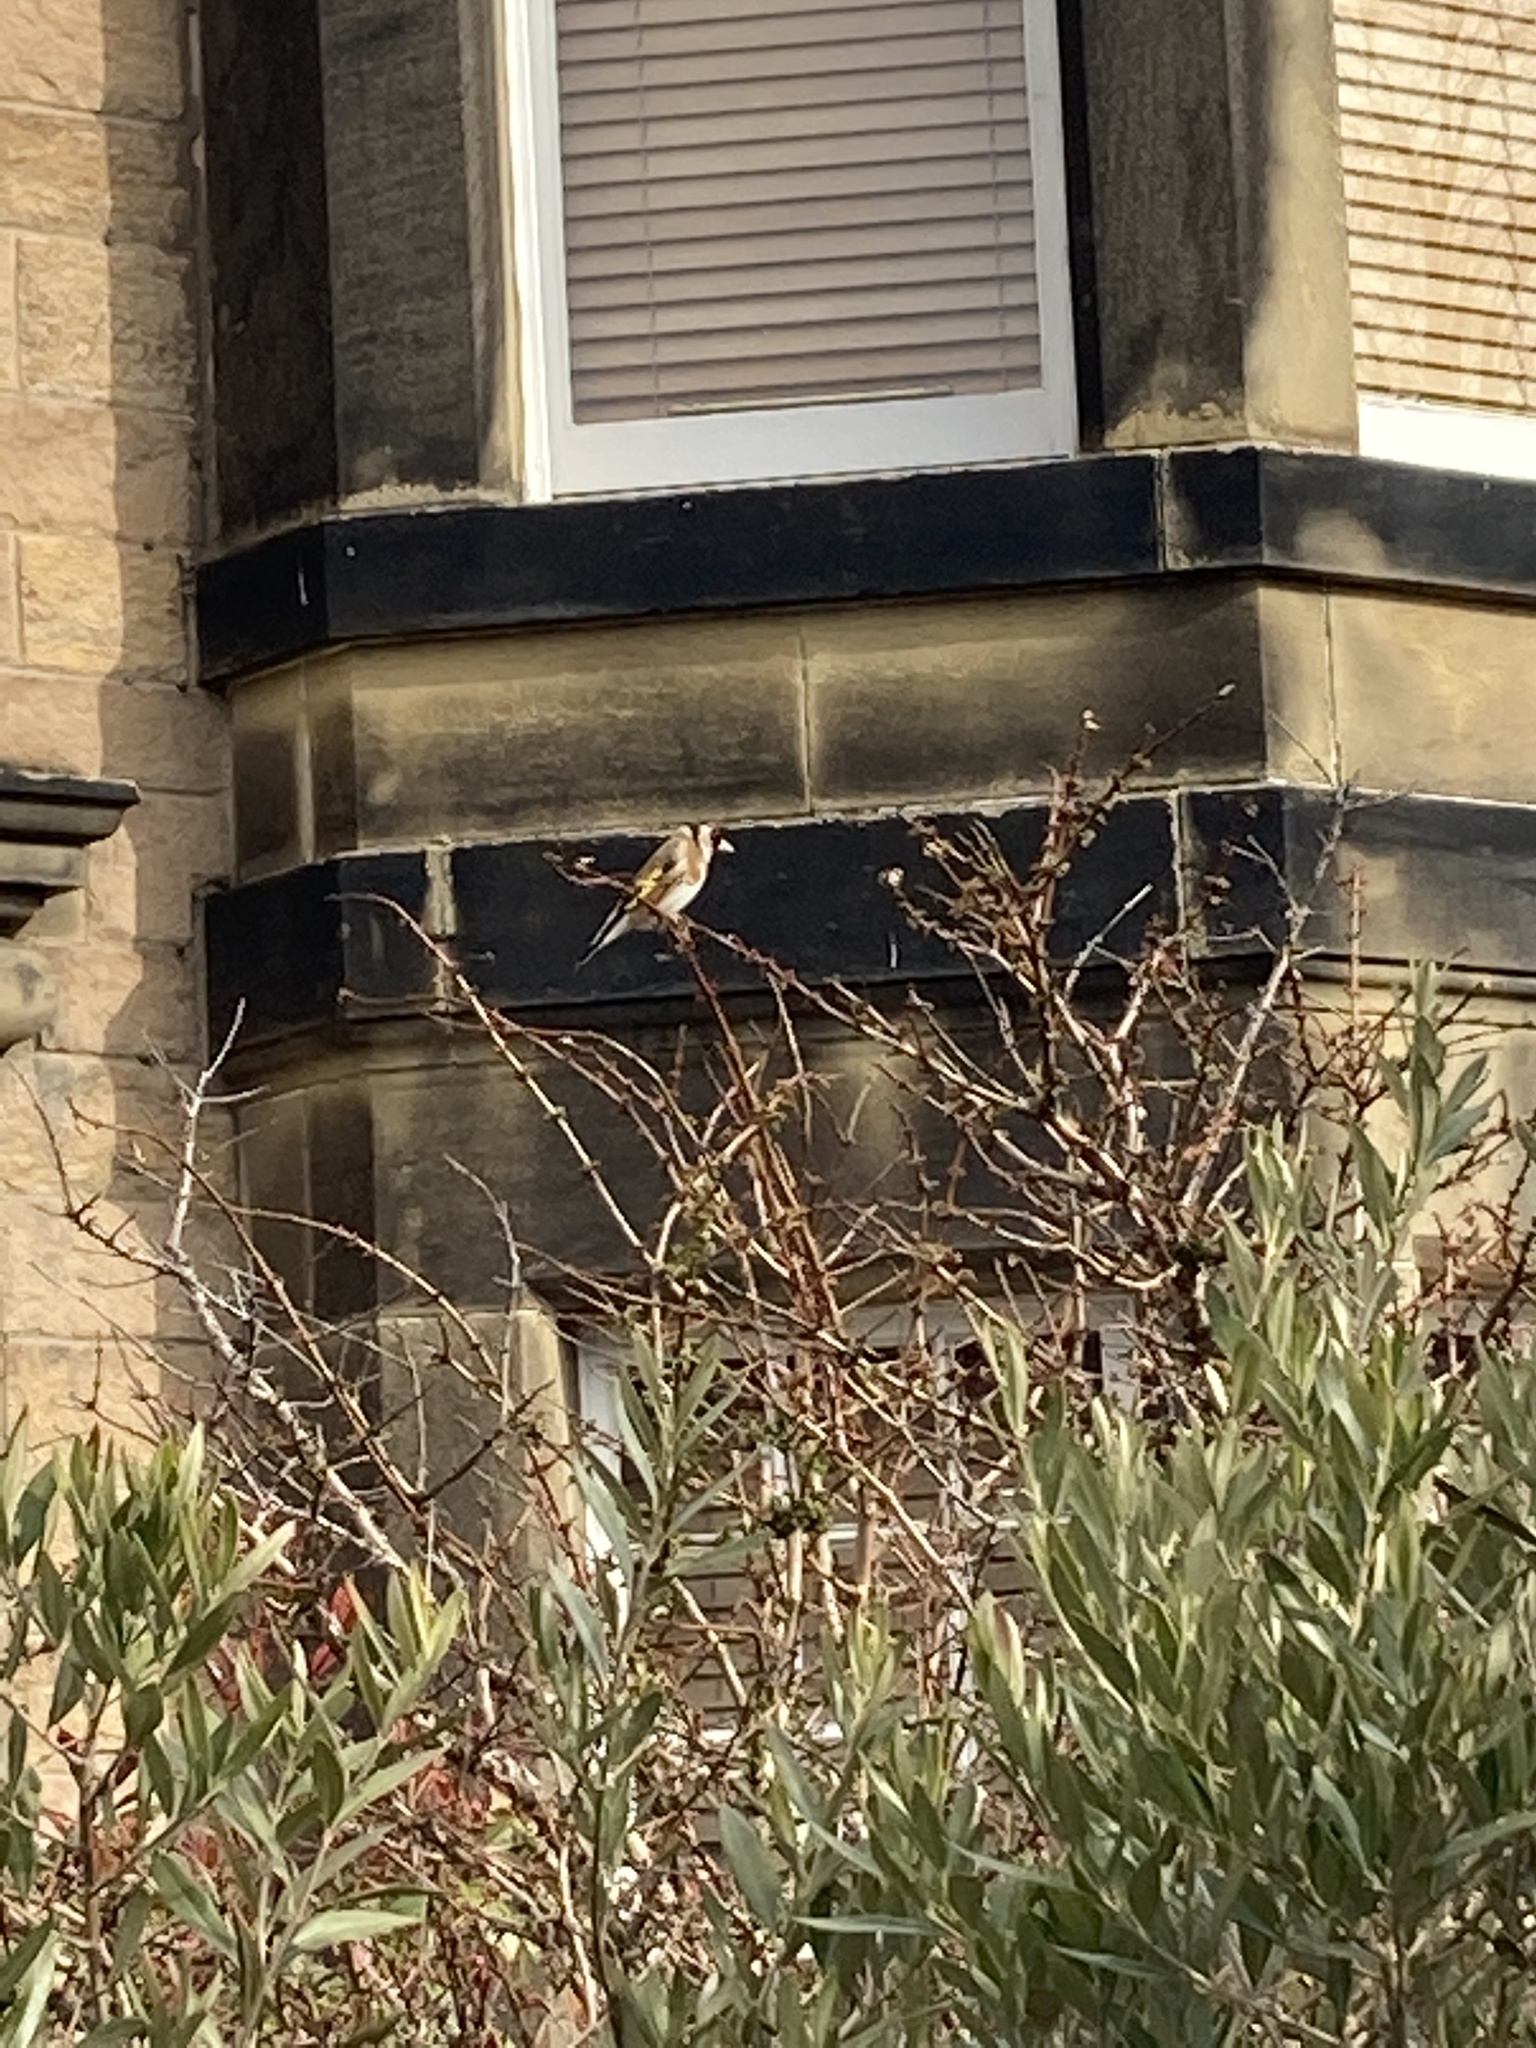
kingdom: Animalia
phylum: Chordata
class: Aves
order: Passeriformes
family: Fringillidae
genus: Carduelis
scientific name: Carduelis carduelis
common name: European goldfinch
